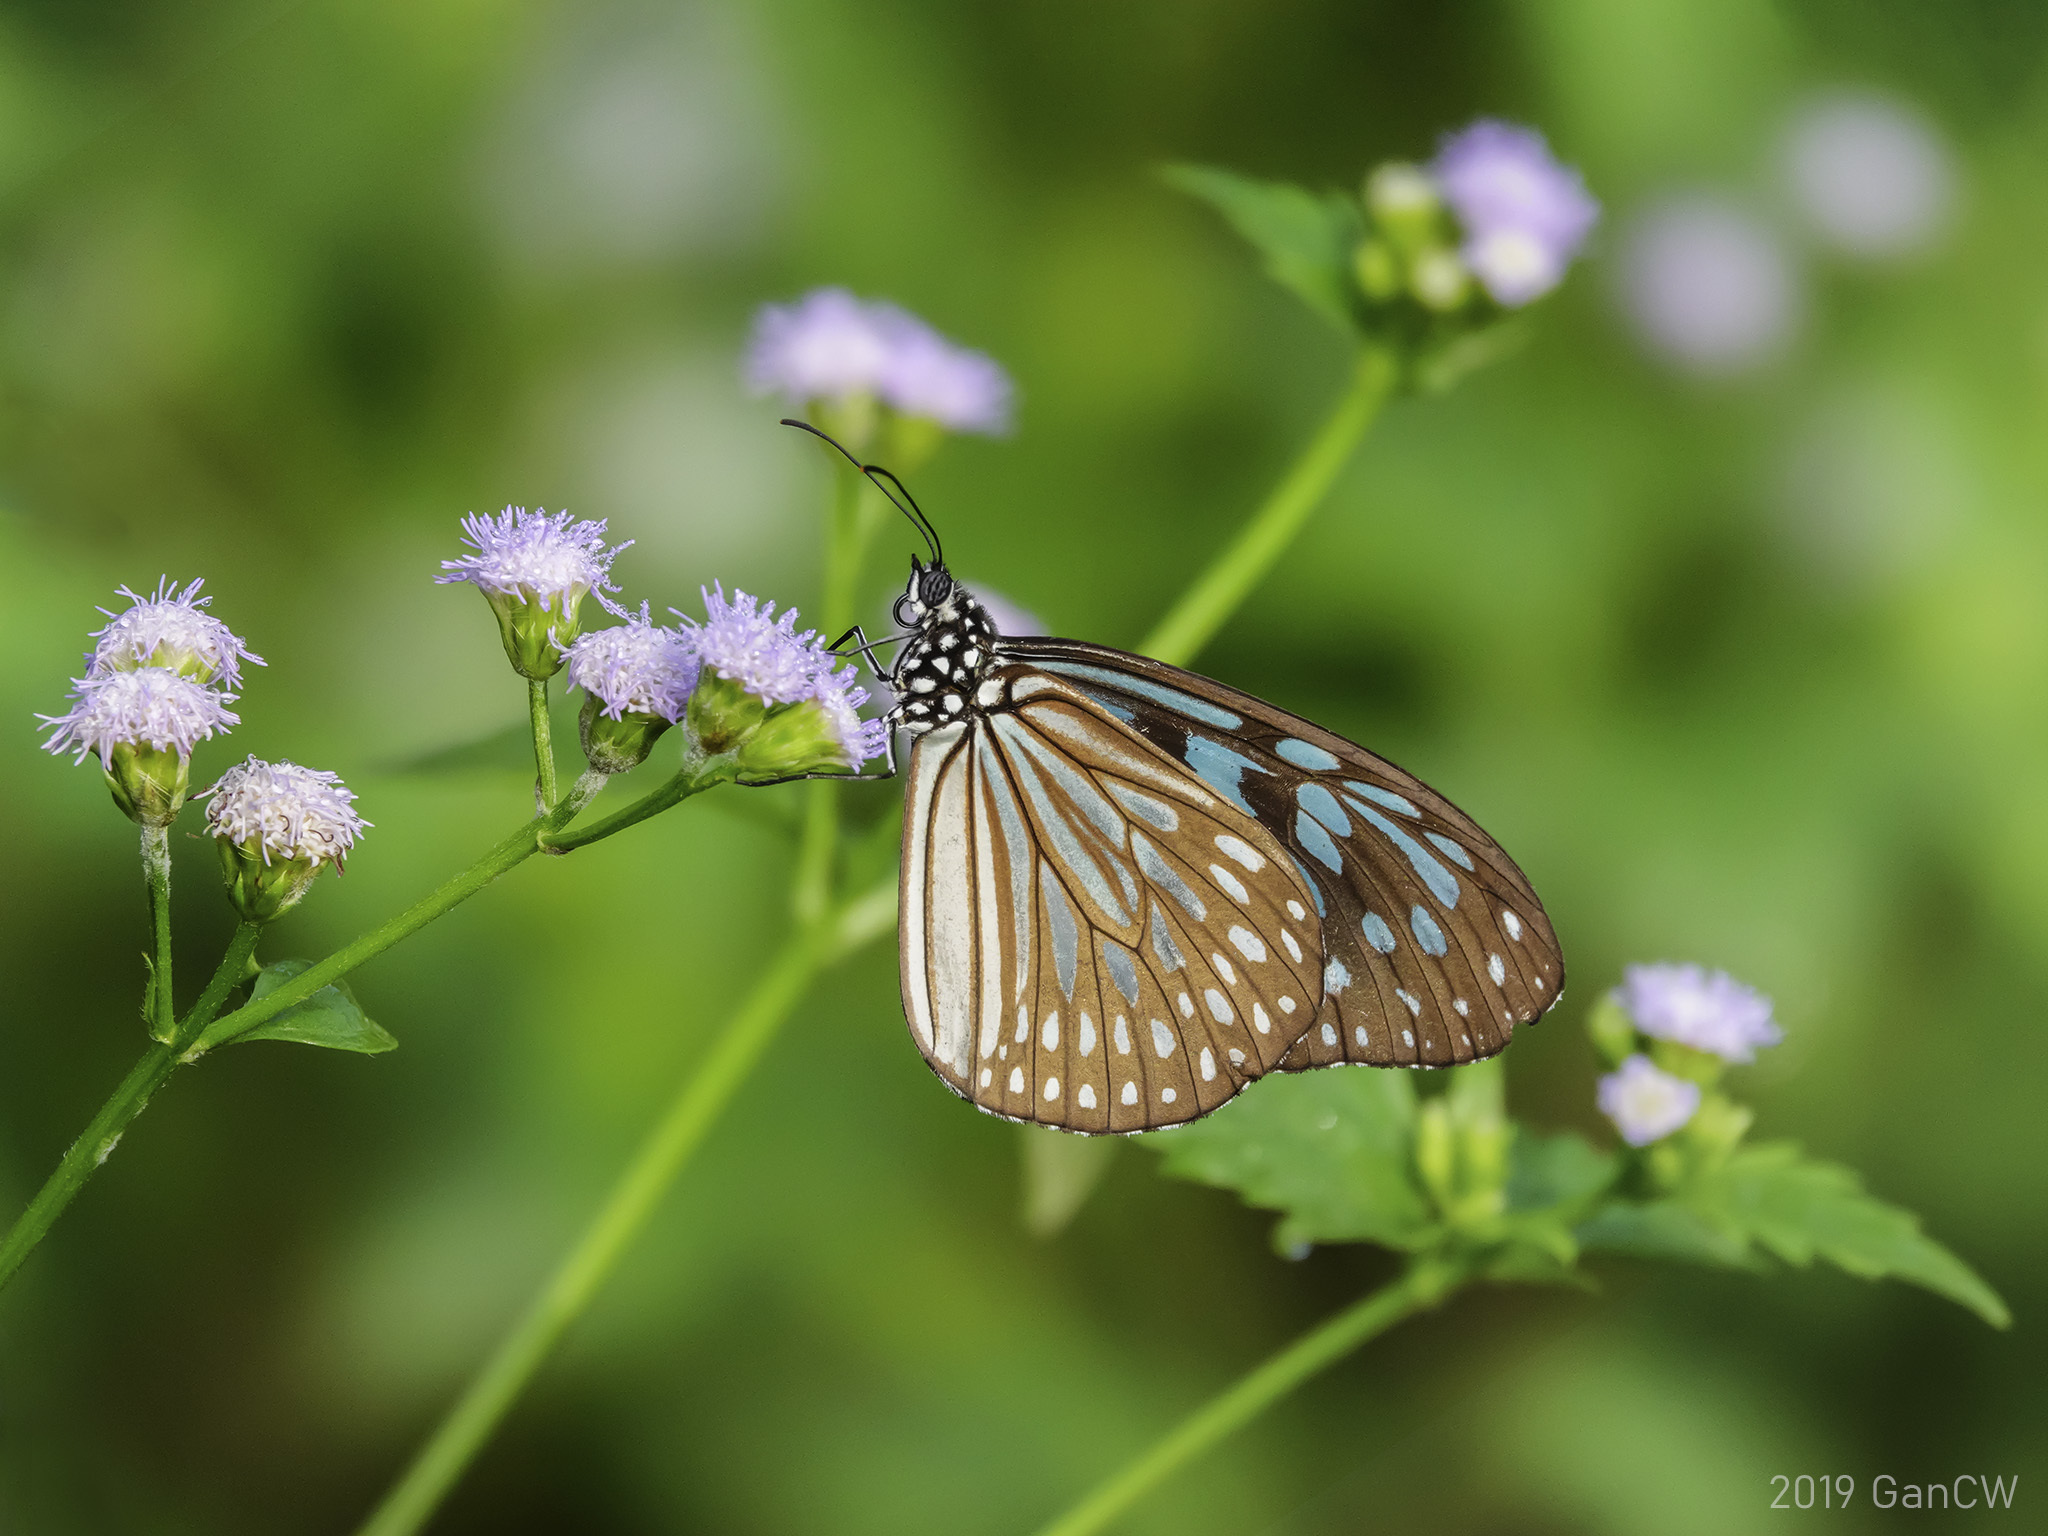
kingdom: Animalia
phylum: Arthropoda
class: Insecta
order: Lepidoptera
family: Nymphalidae
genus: Ideopsis
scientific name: Ideopsis similis
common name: Ceylon blue glassy tiger
